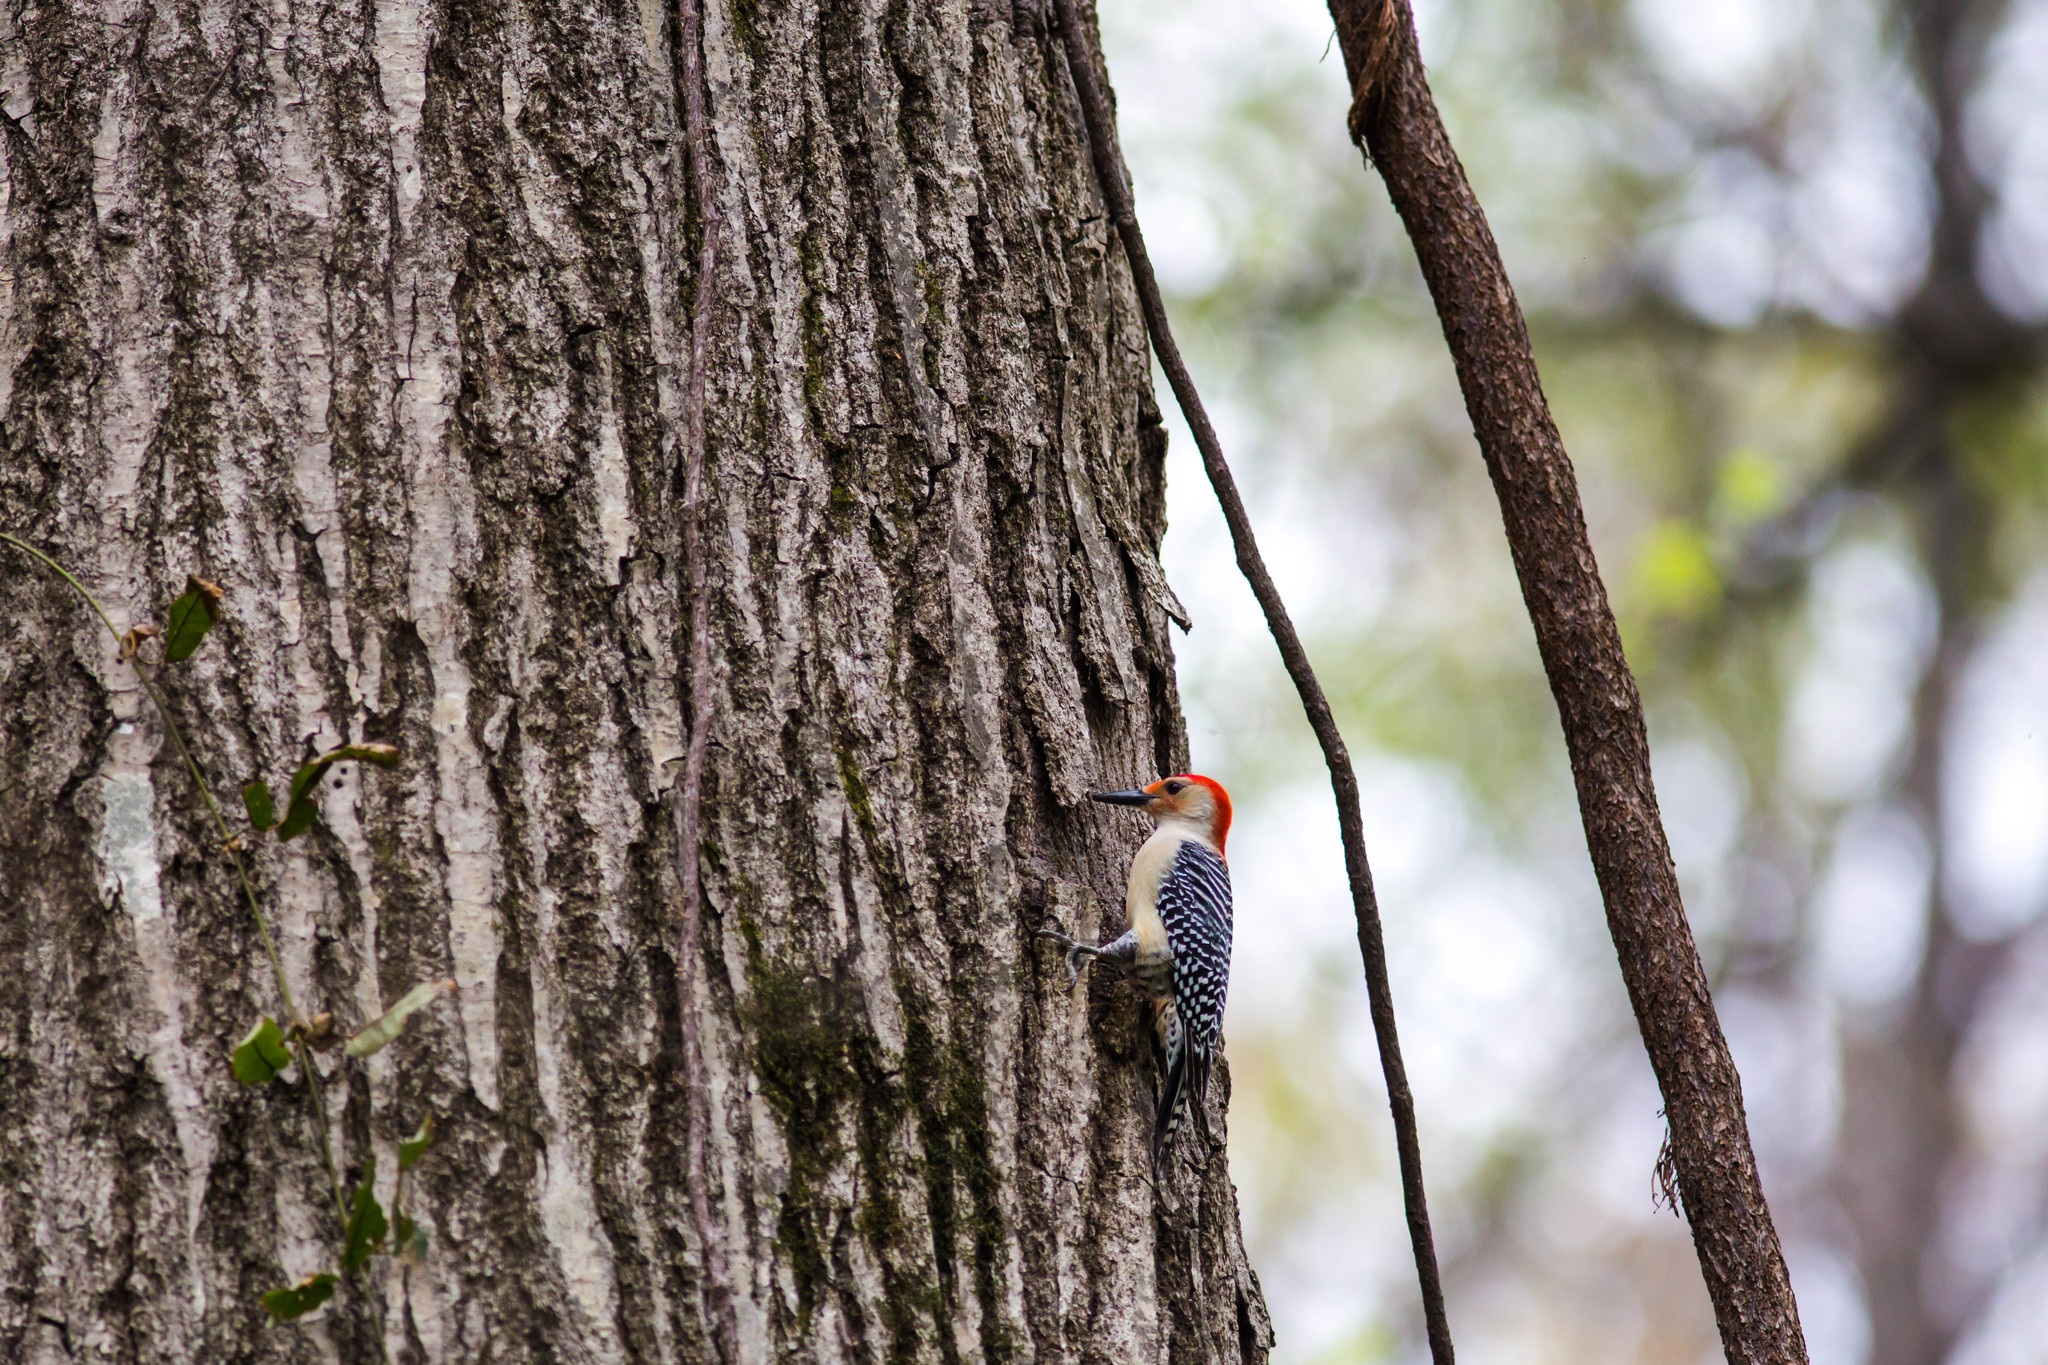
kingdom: Animalia
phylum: Chordata
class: Aves
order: Piciformes
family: Picidae
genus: Melanerpes
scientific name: Melanerpes carolinus
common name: Red-bellied woodpecker
